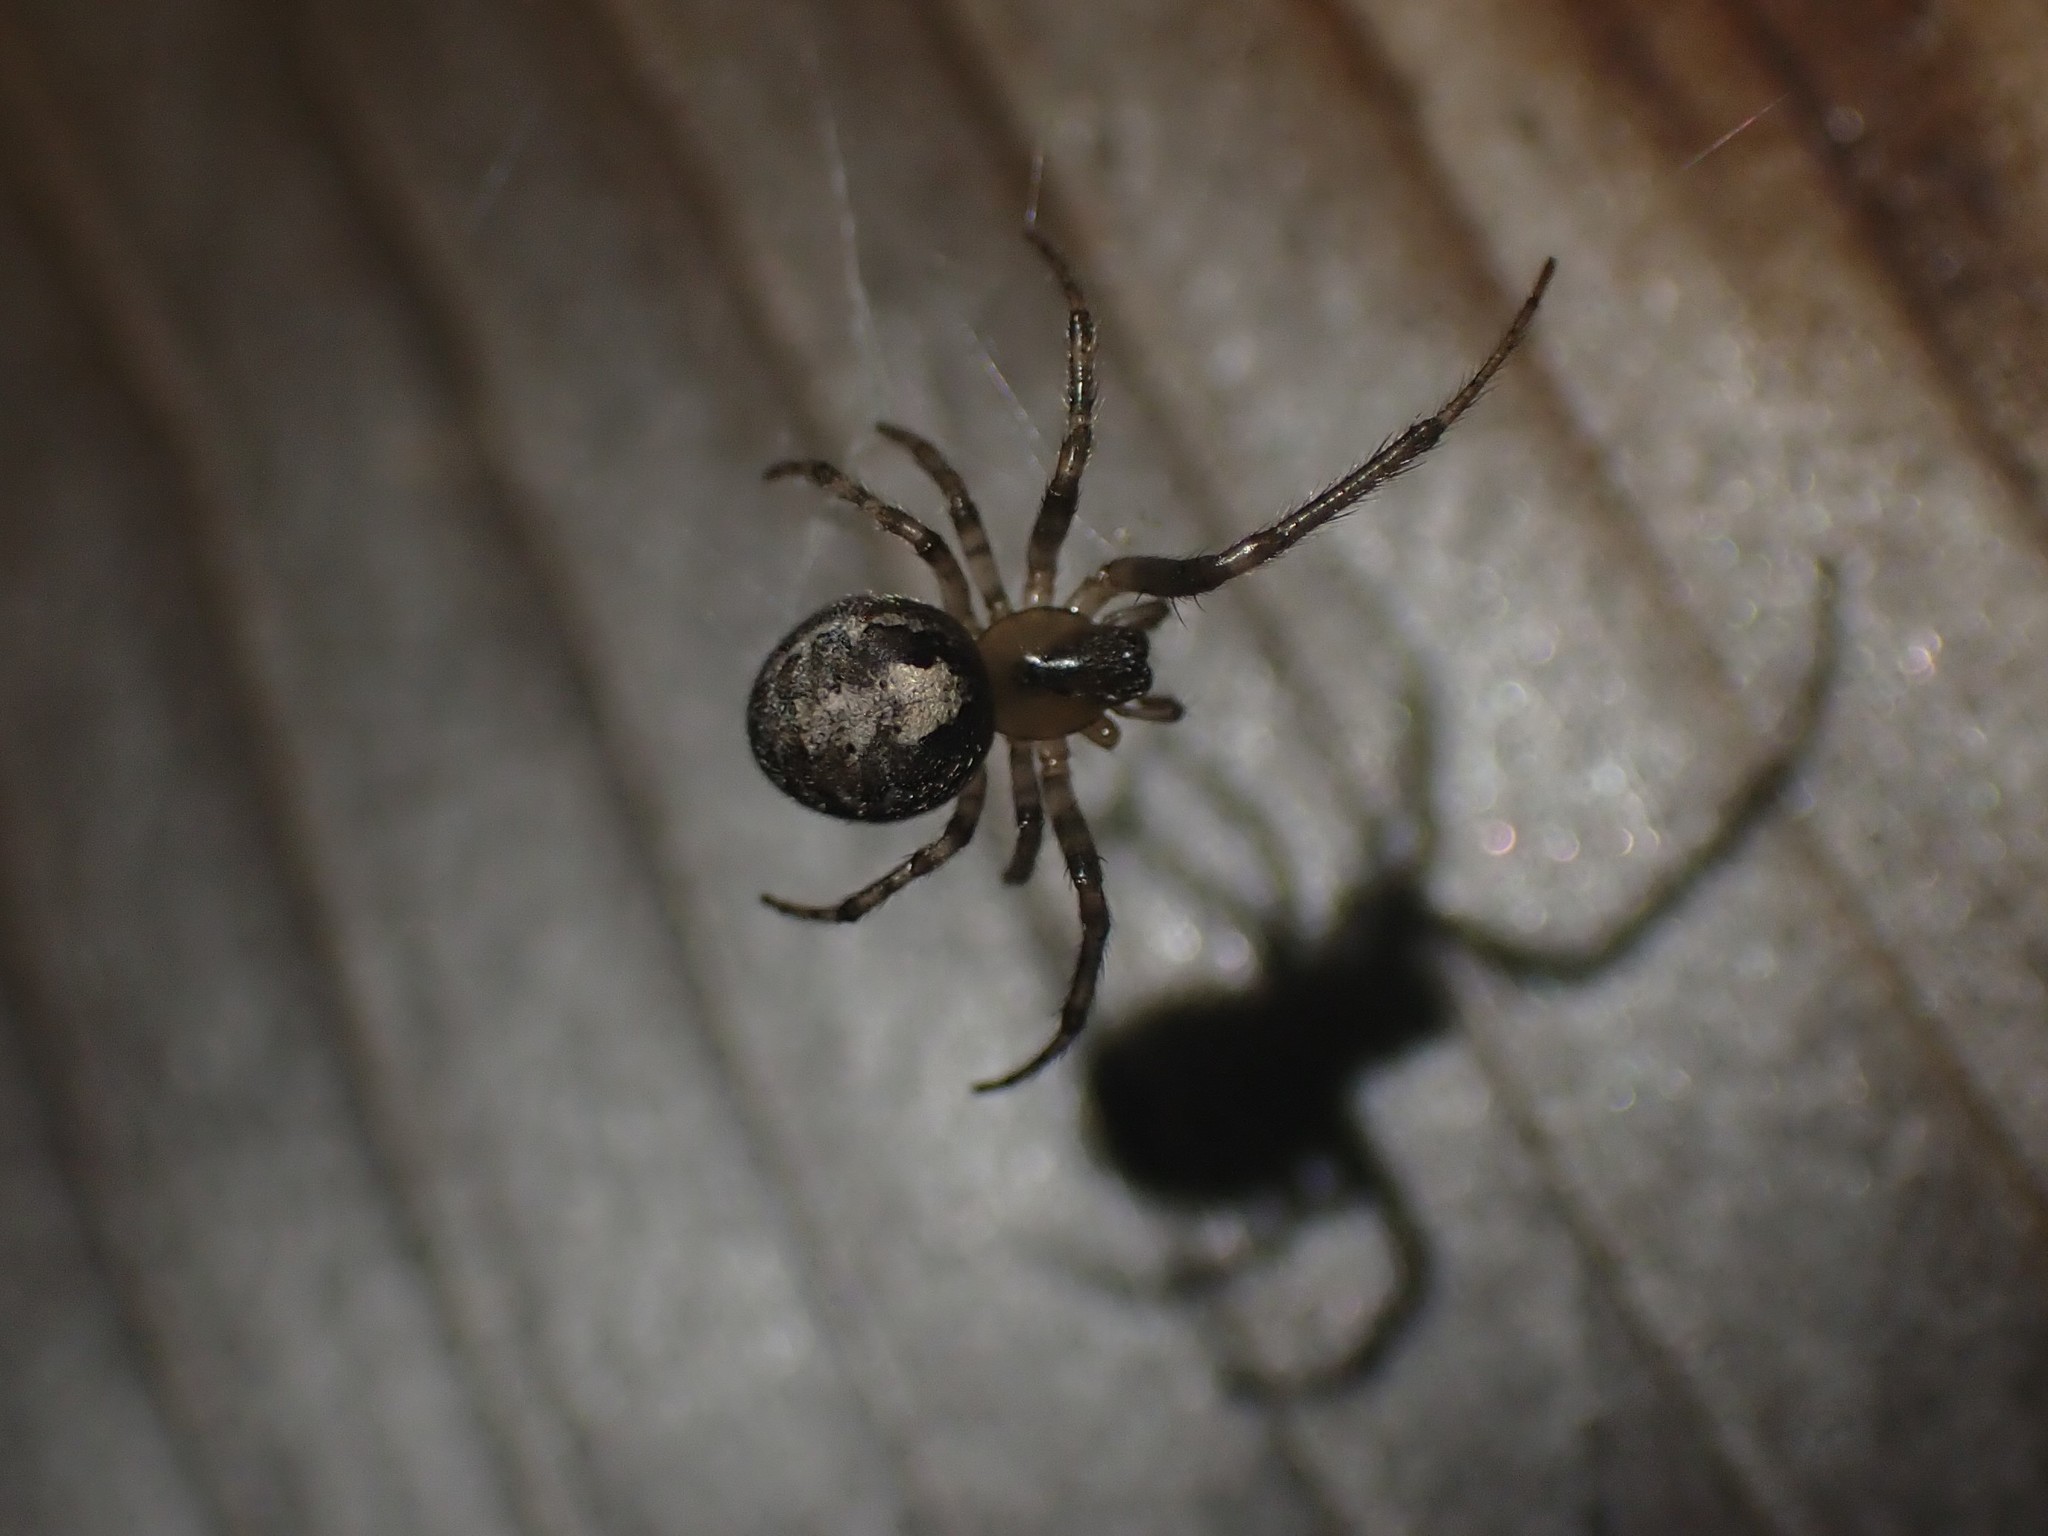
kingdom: Animalia
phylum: Arthropoda
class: Arachnida
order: Araneae
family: Araneidae
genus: Zygiella
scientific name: Zygiella x-notata
